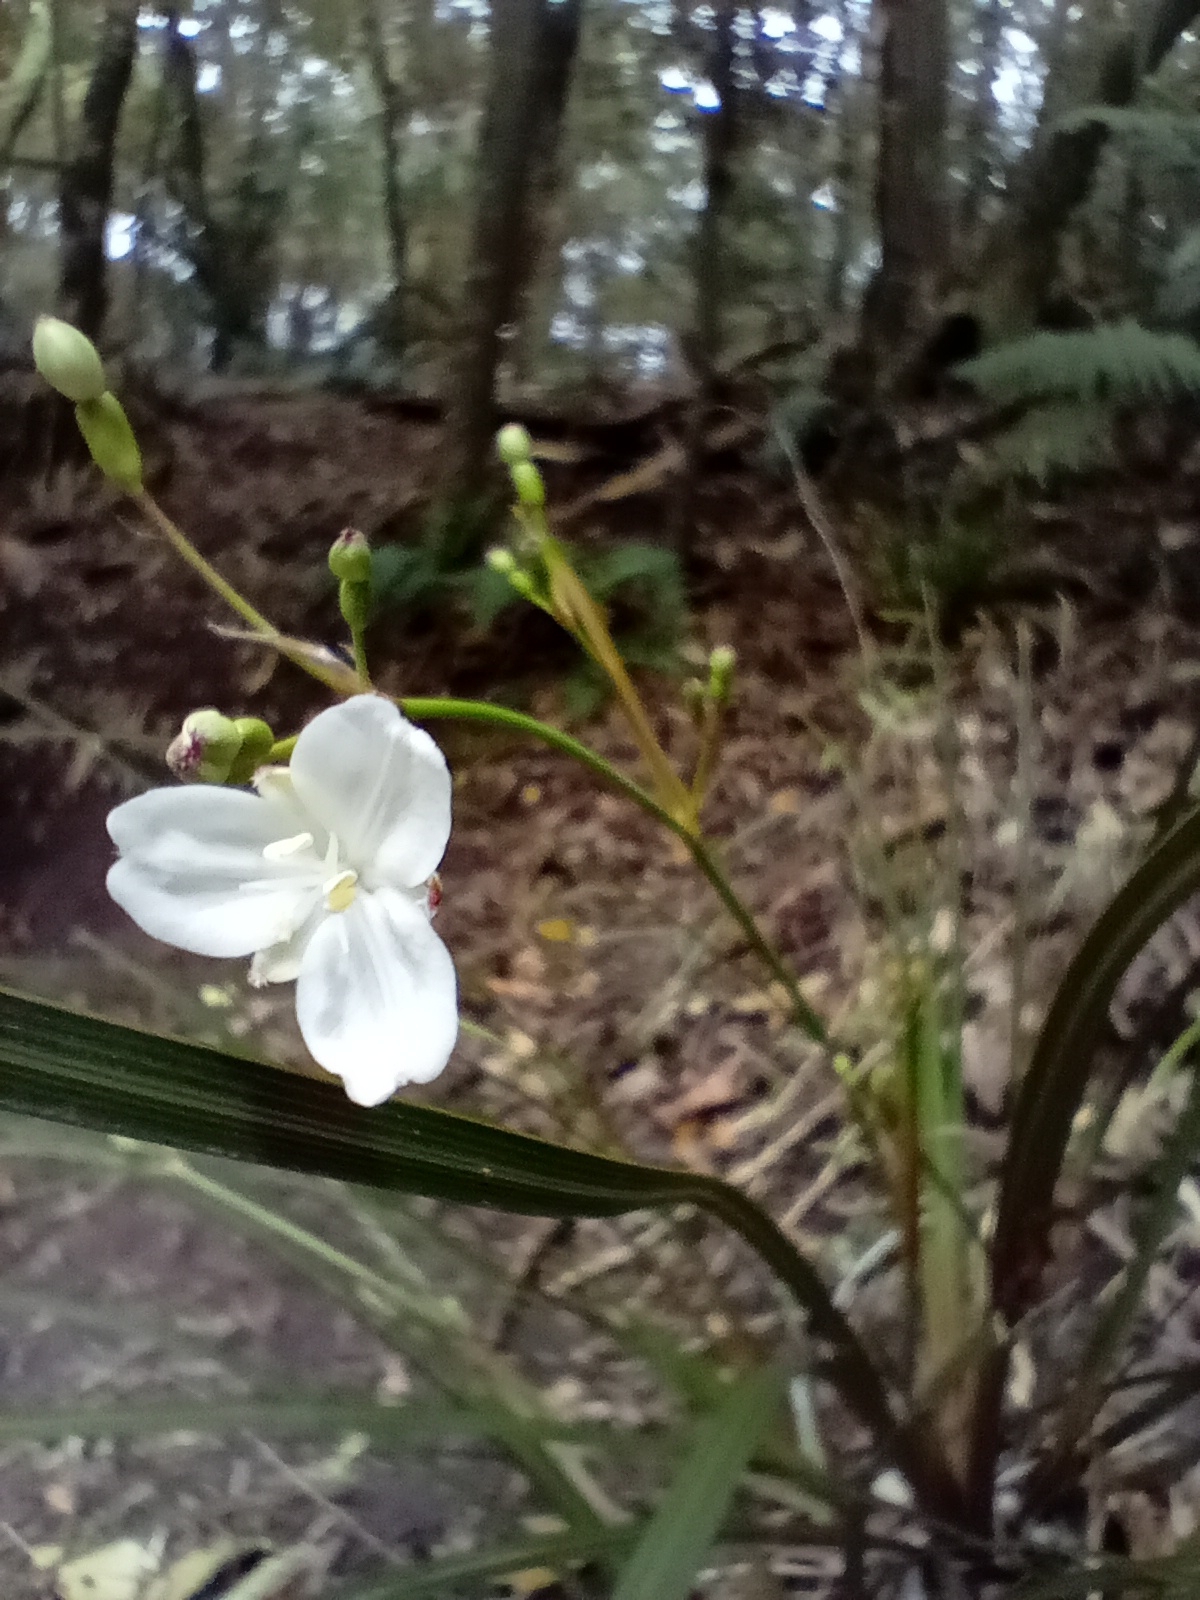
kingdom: Plantae
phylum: Tracheophyta
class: Liliopsida
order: Asparagales
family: Iridaceae
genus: Libertia
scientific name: Libertia ixioides
